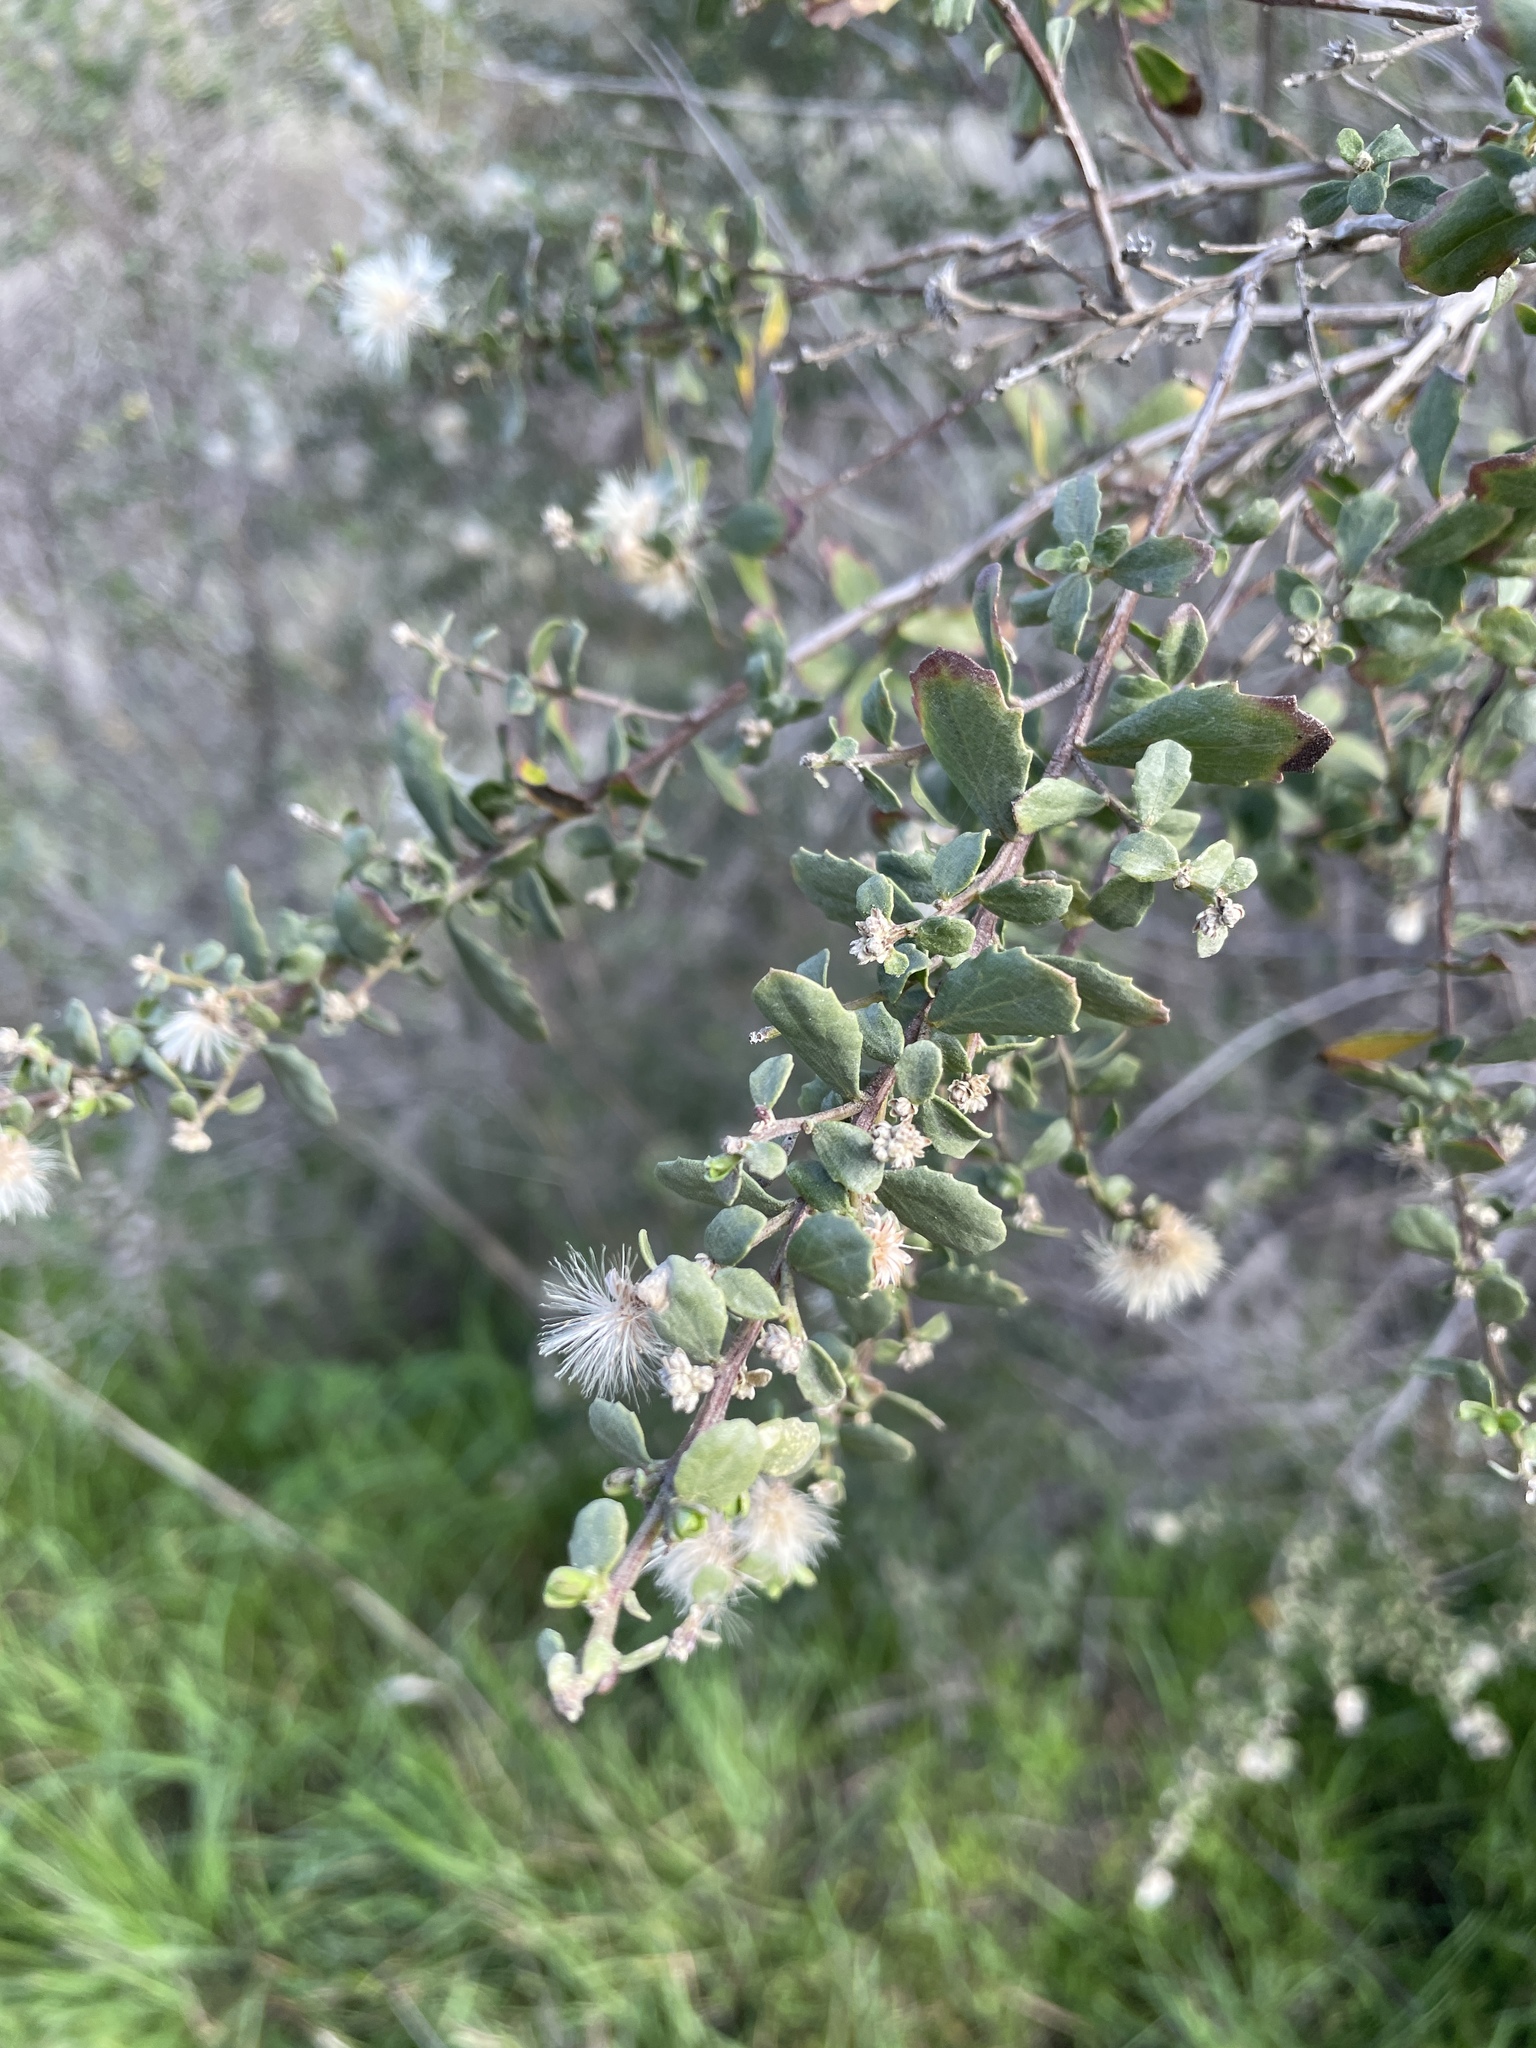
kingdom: Plantae
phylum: Tracheophyta
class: Magnoliopsida
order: Asterales
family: Asteraceae
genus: Baccharis
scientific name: Baccharis pilularis
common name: Coyotebrush
